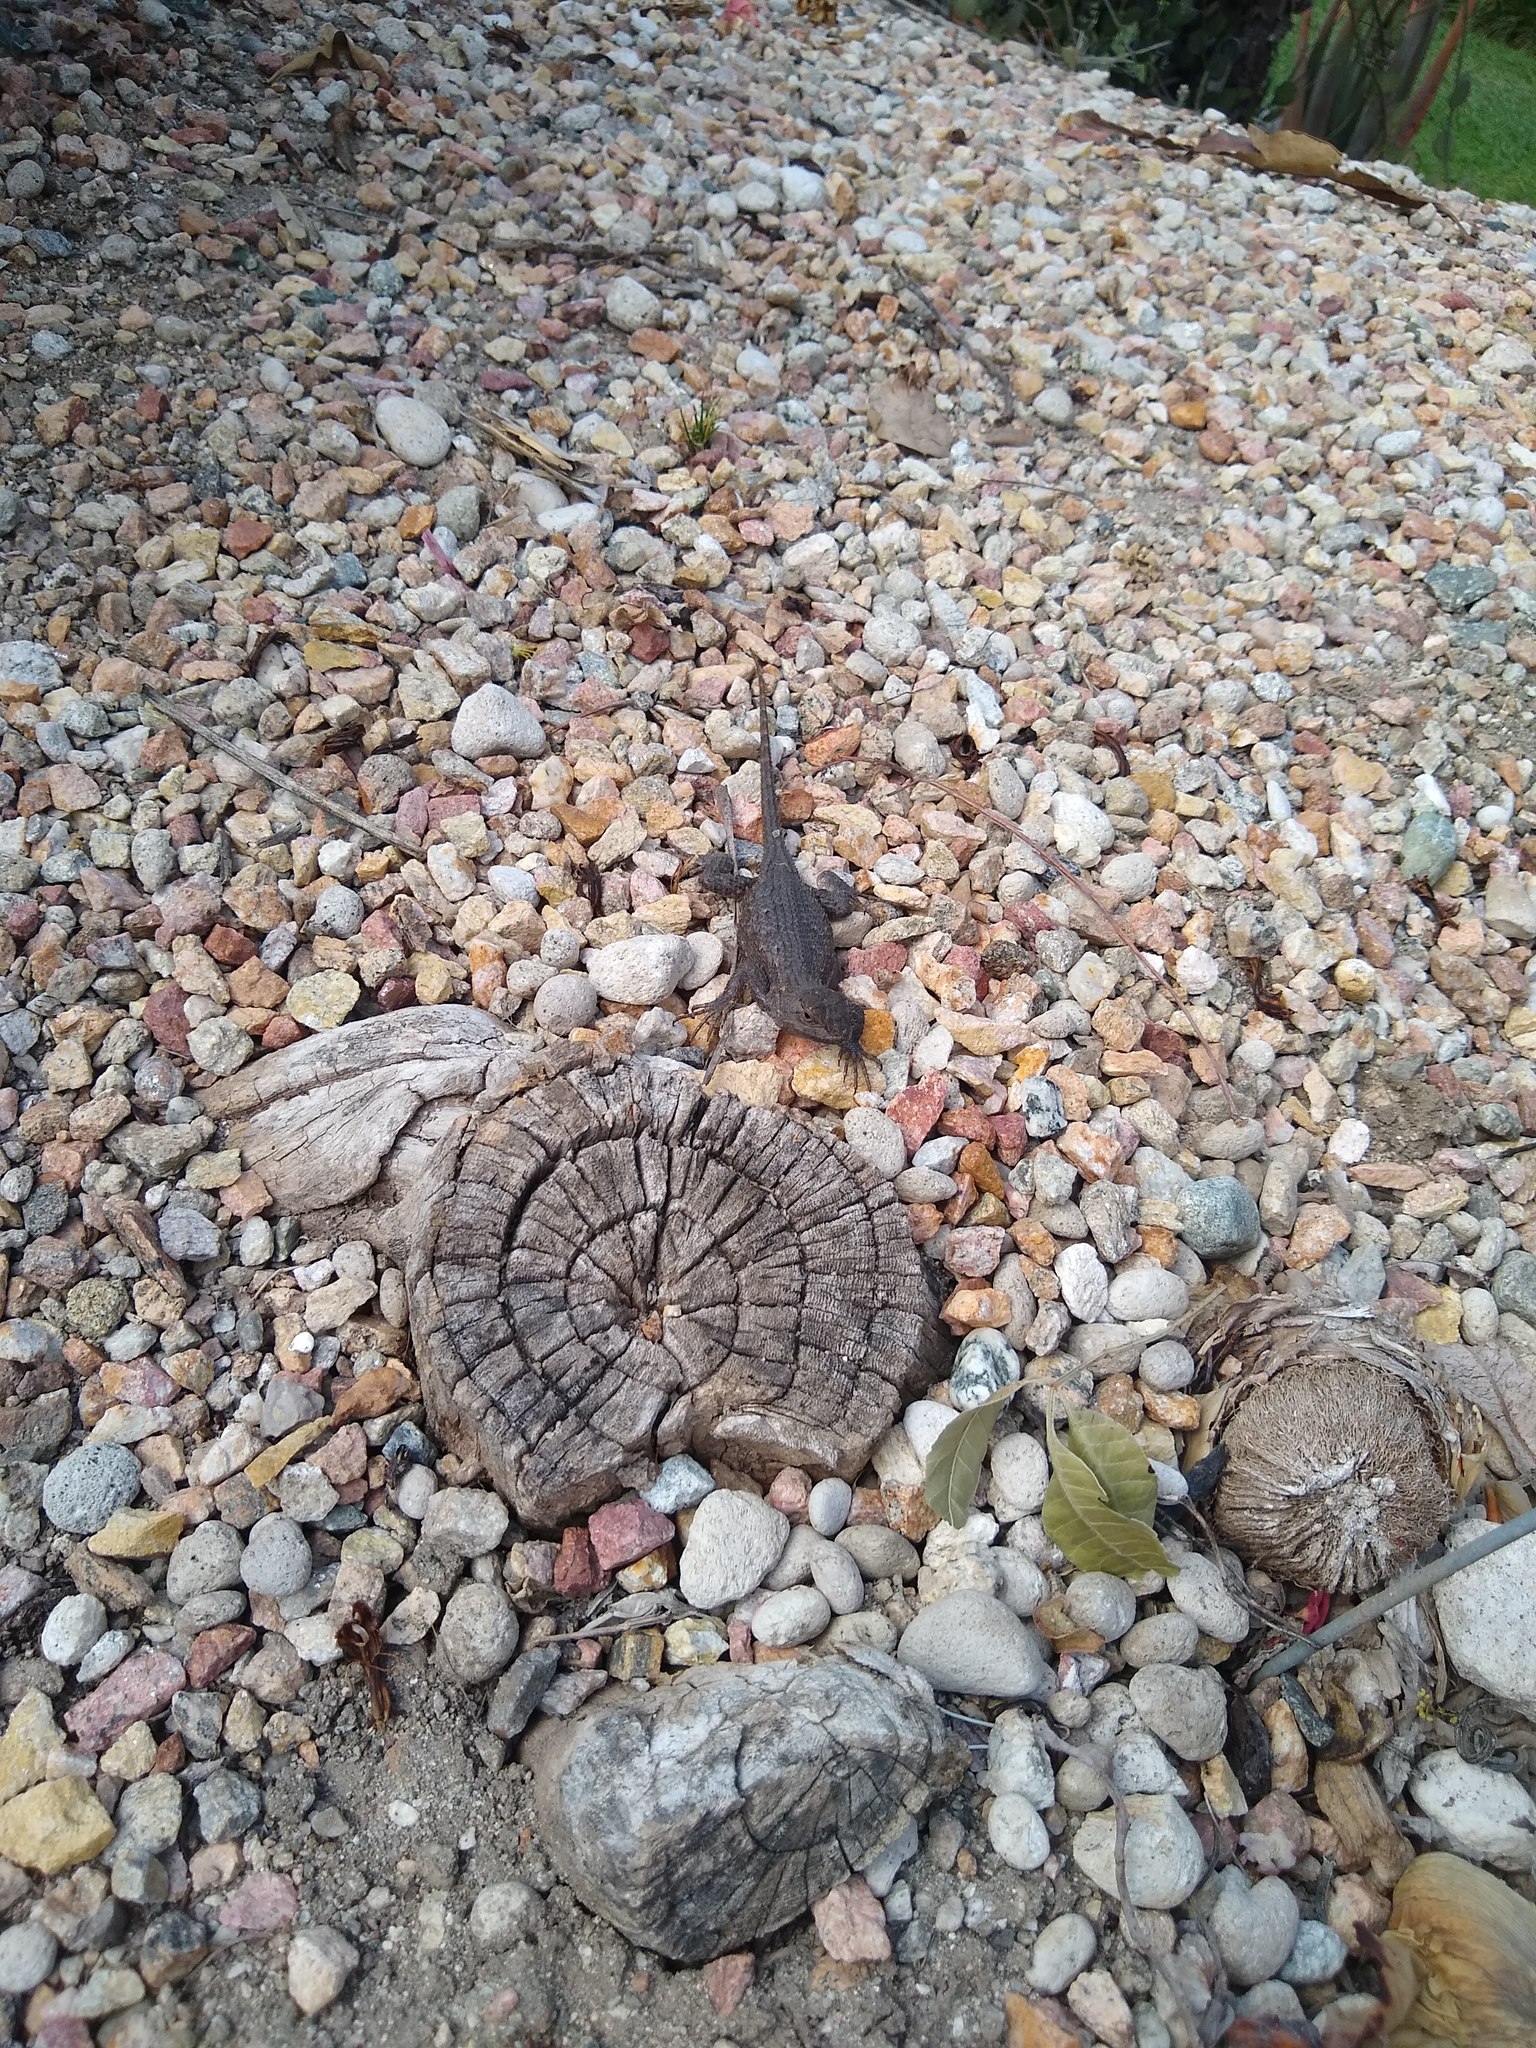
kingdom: Animalia
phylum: Chordata
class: Squamata
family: Phrynosomatidae
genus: Sceloporus
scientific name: Sceloporus occidentalis
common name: Western fence lizard
